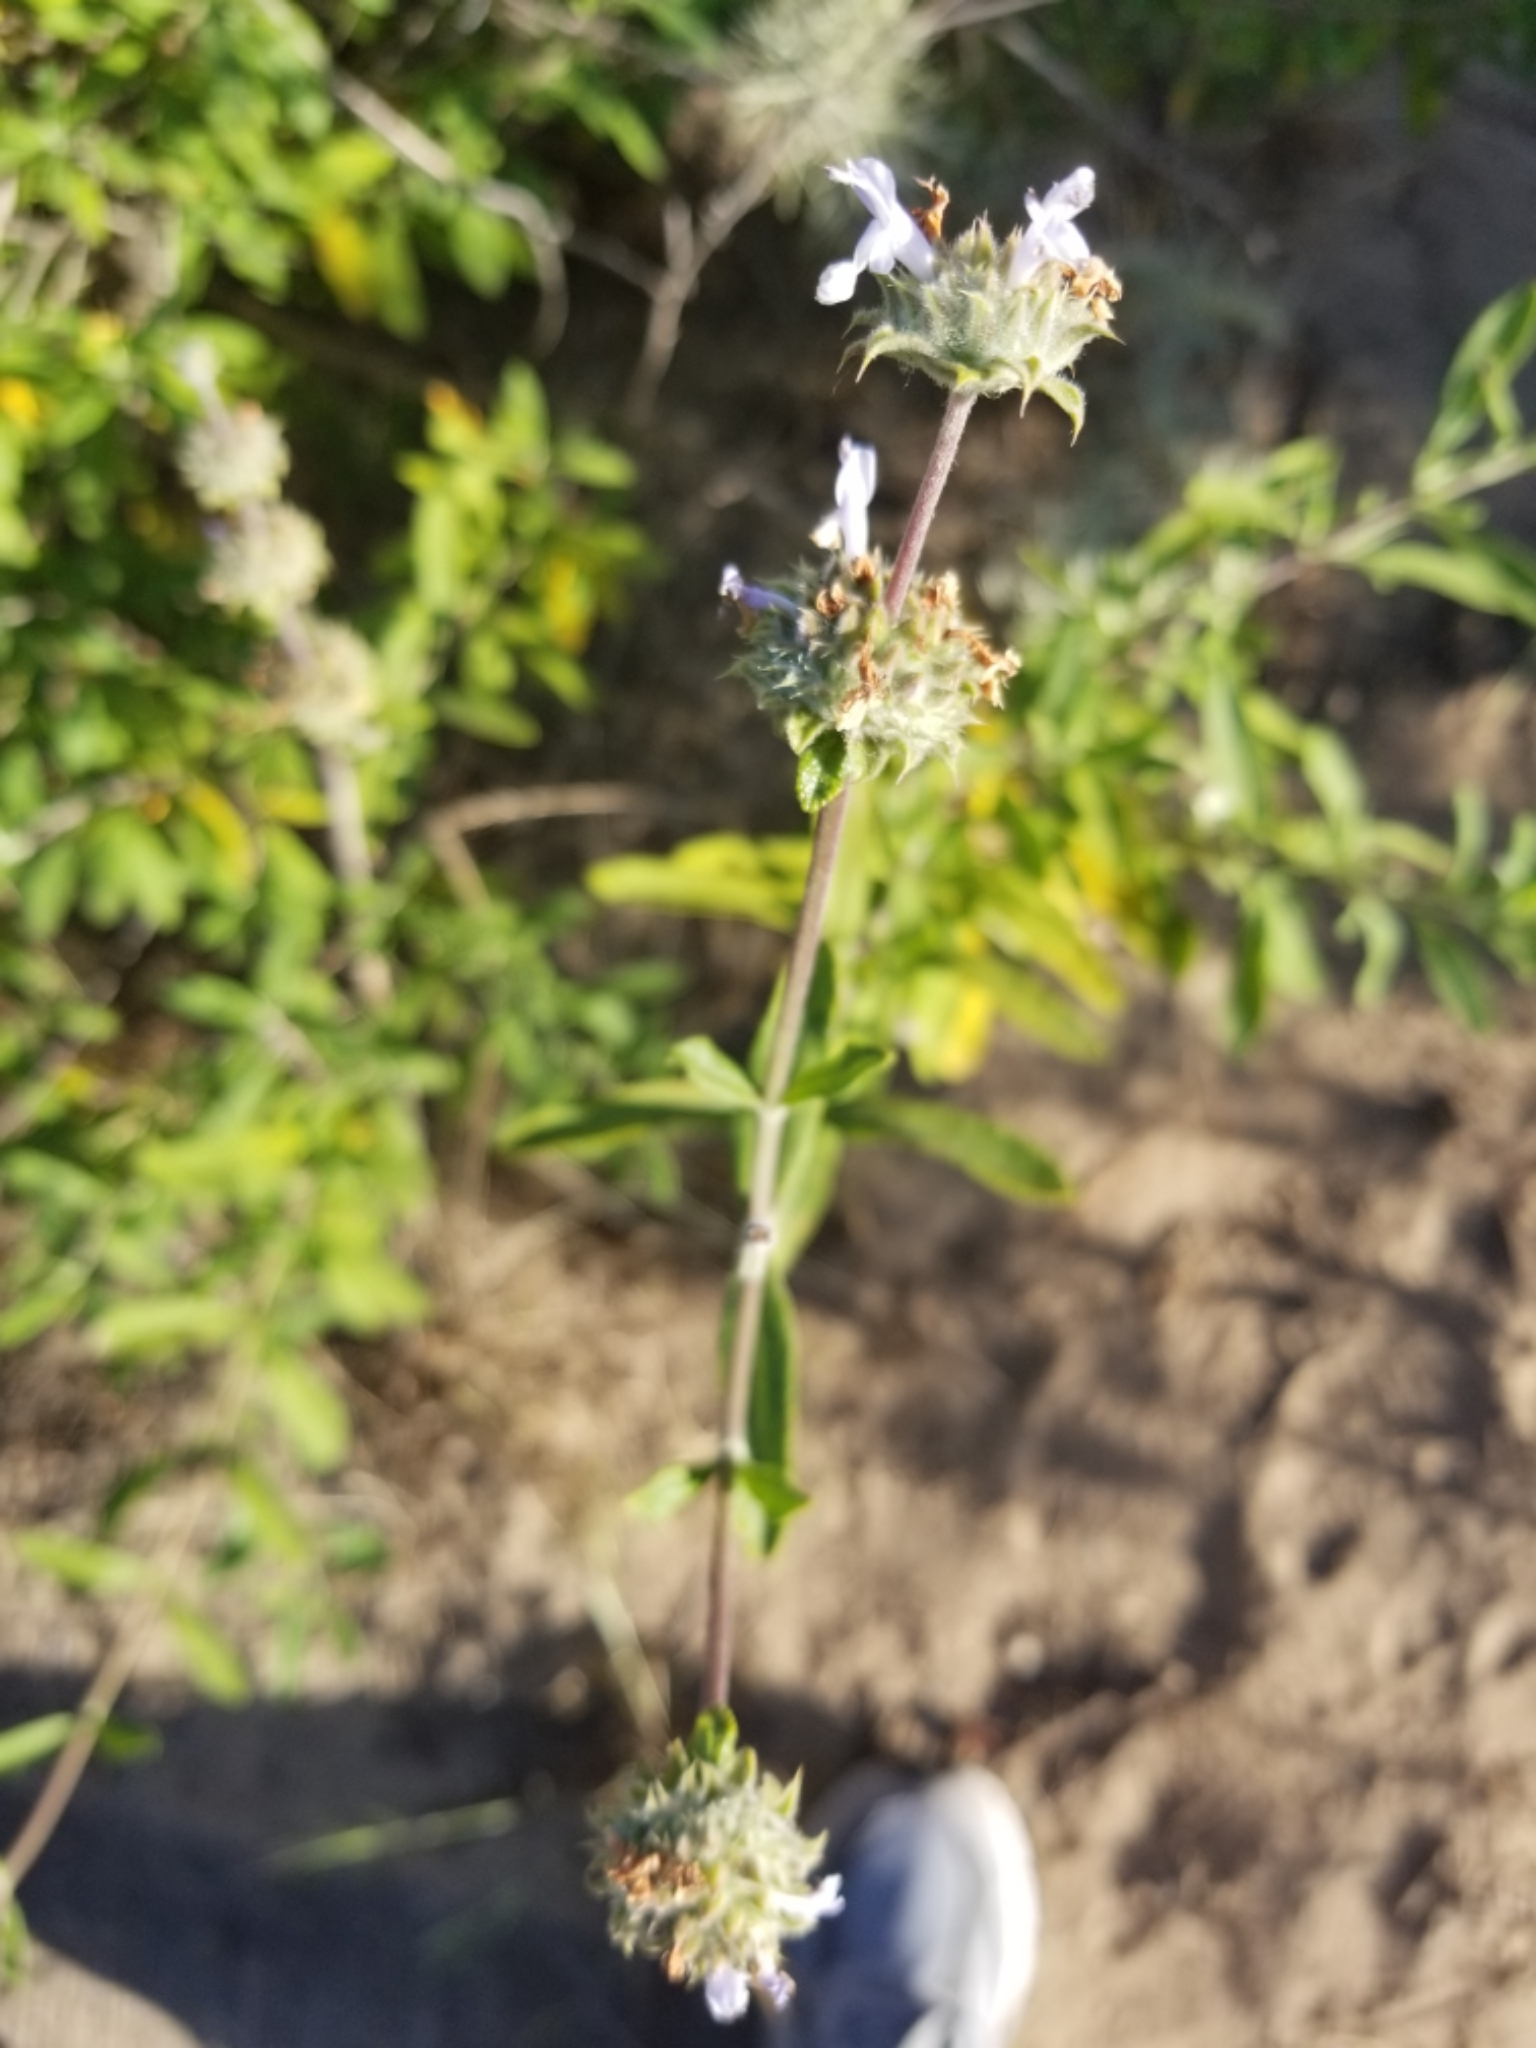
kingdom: Plantae
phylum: Tracheophyta
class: Magnoliopsida
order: Lamiales
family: Lamiaceae
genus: Salvia
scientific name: Salvia mellifera
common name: Black sage
